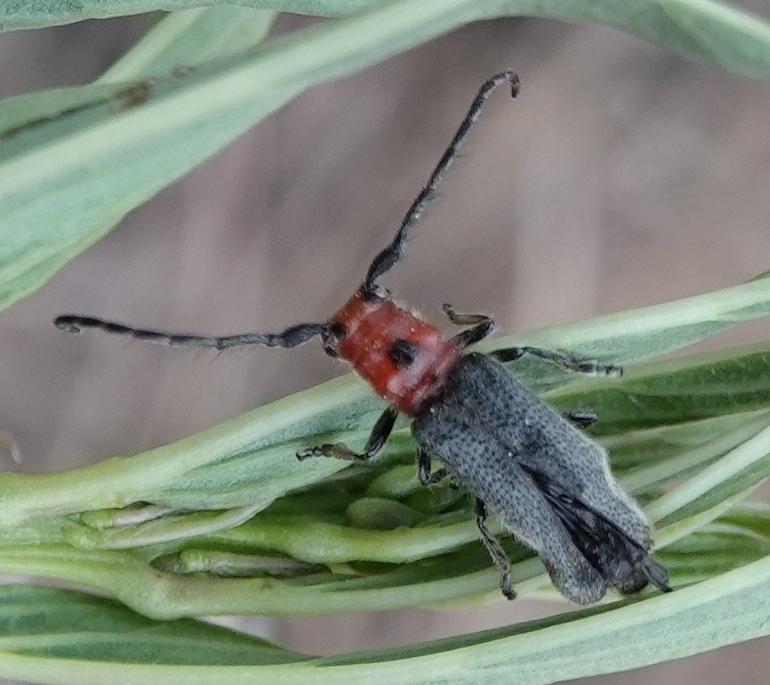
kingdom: Animalia
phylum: Arthropoda
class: Insecta
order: Coleoptera
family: Cerambycidae
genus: Phaea
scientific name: Phaea canescens
